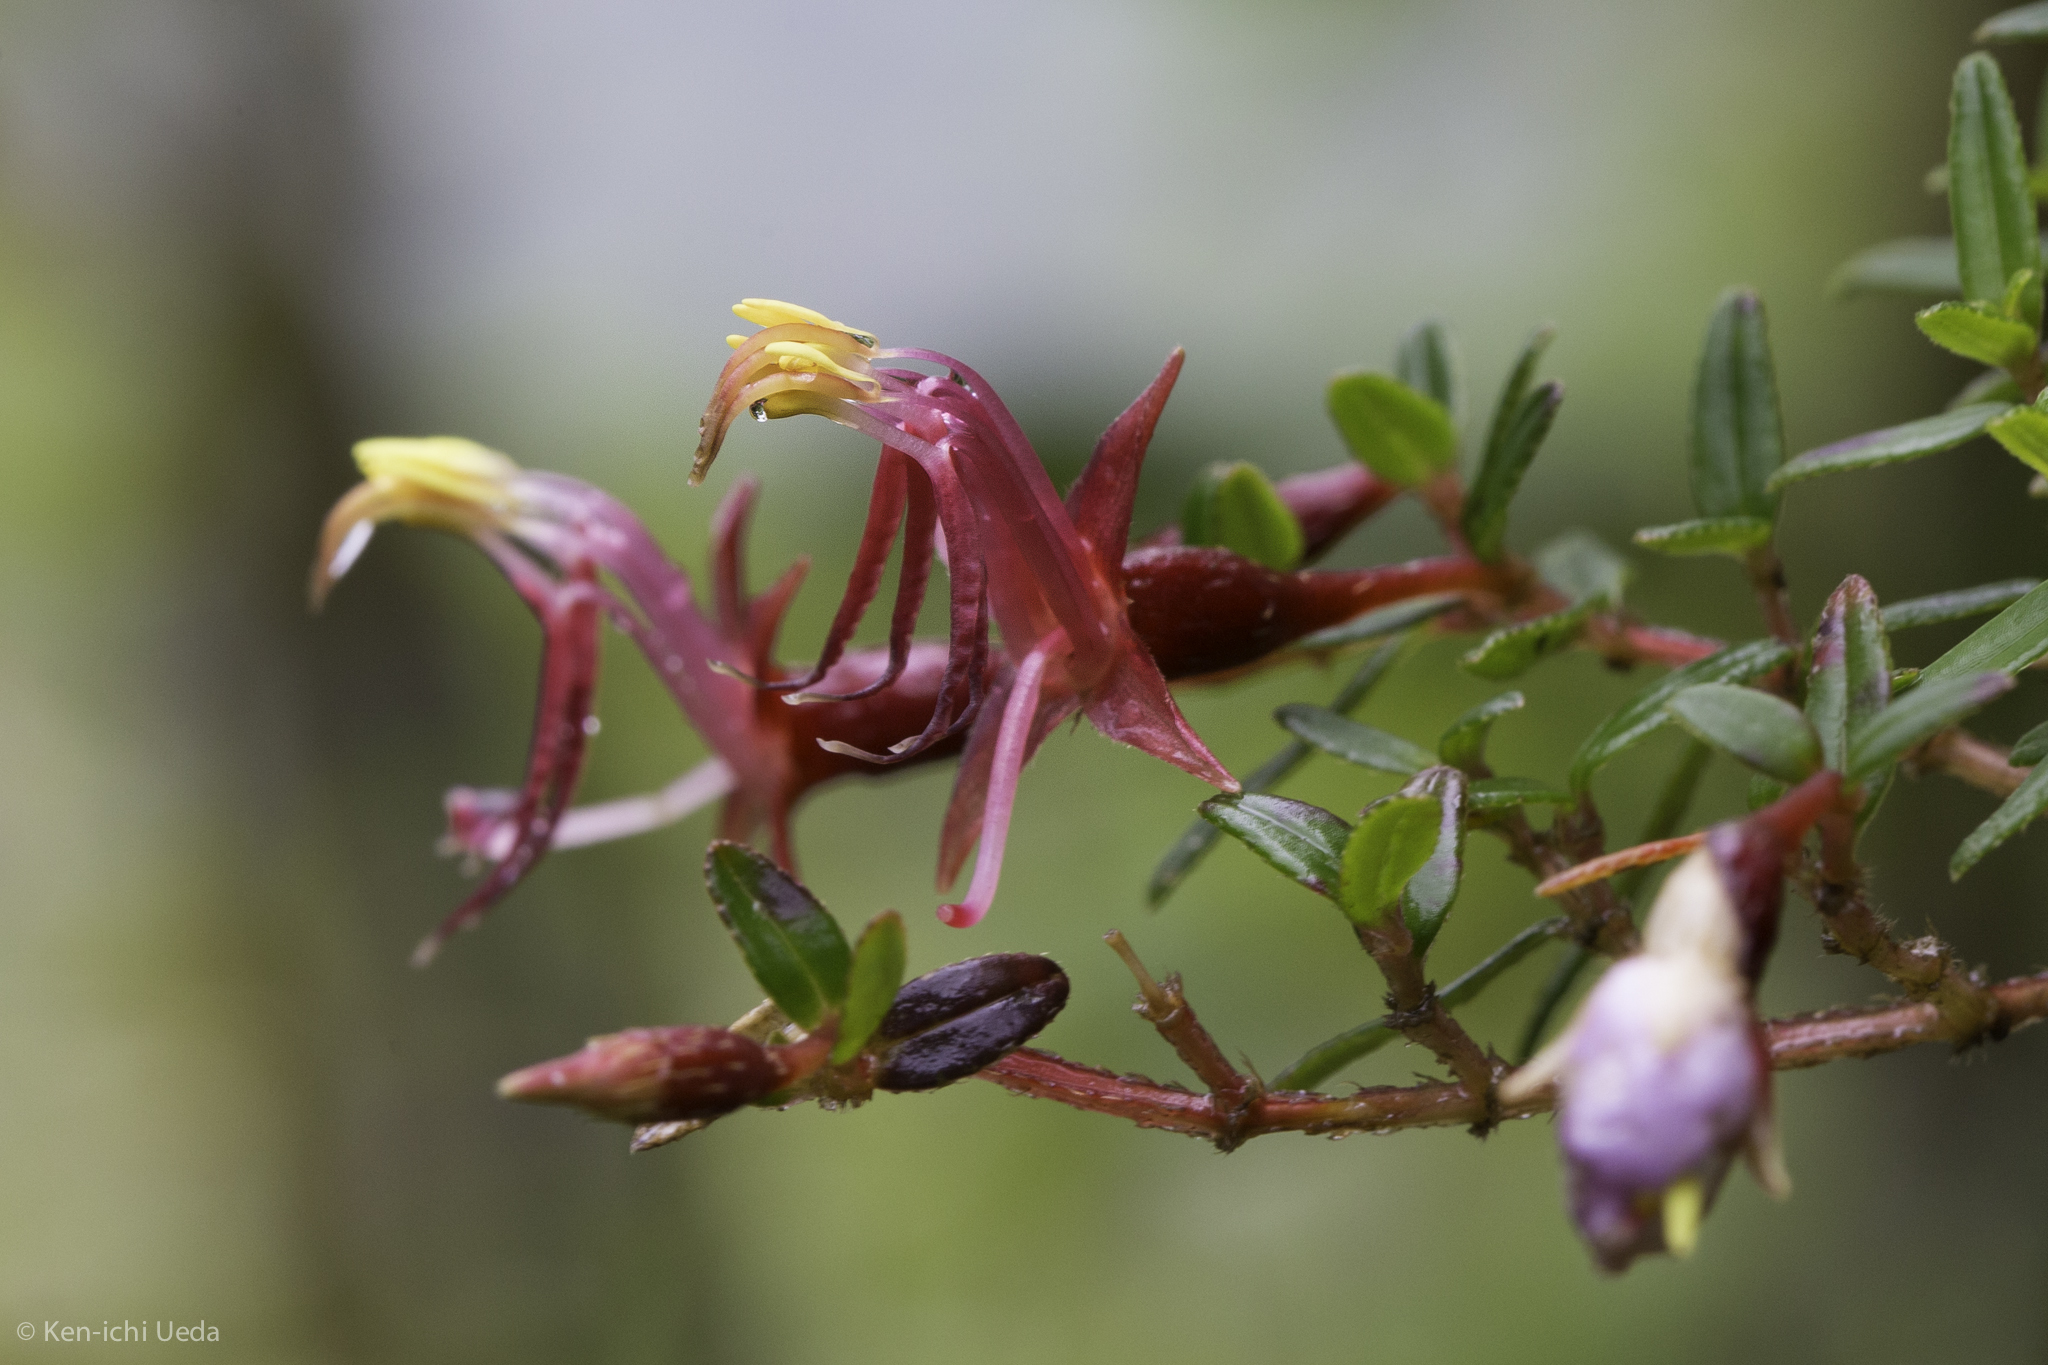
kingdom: Plantae
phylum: Tracheophyta
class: Magnoliopsida
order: Myrtales
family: Melastomataceae
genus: Monochaetum
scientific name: Monochaetum linearifolium
